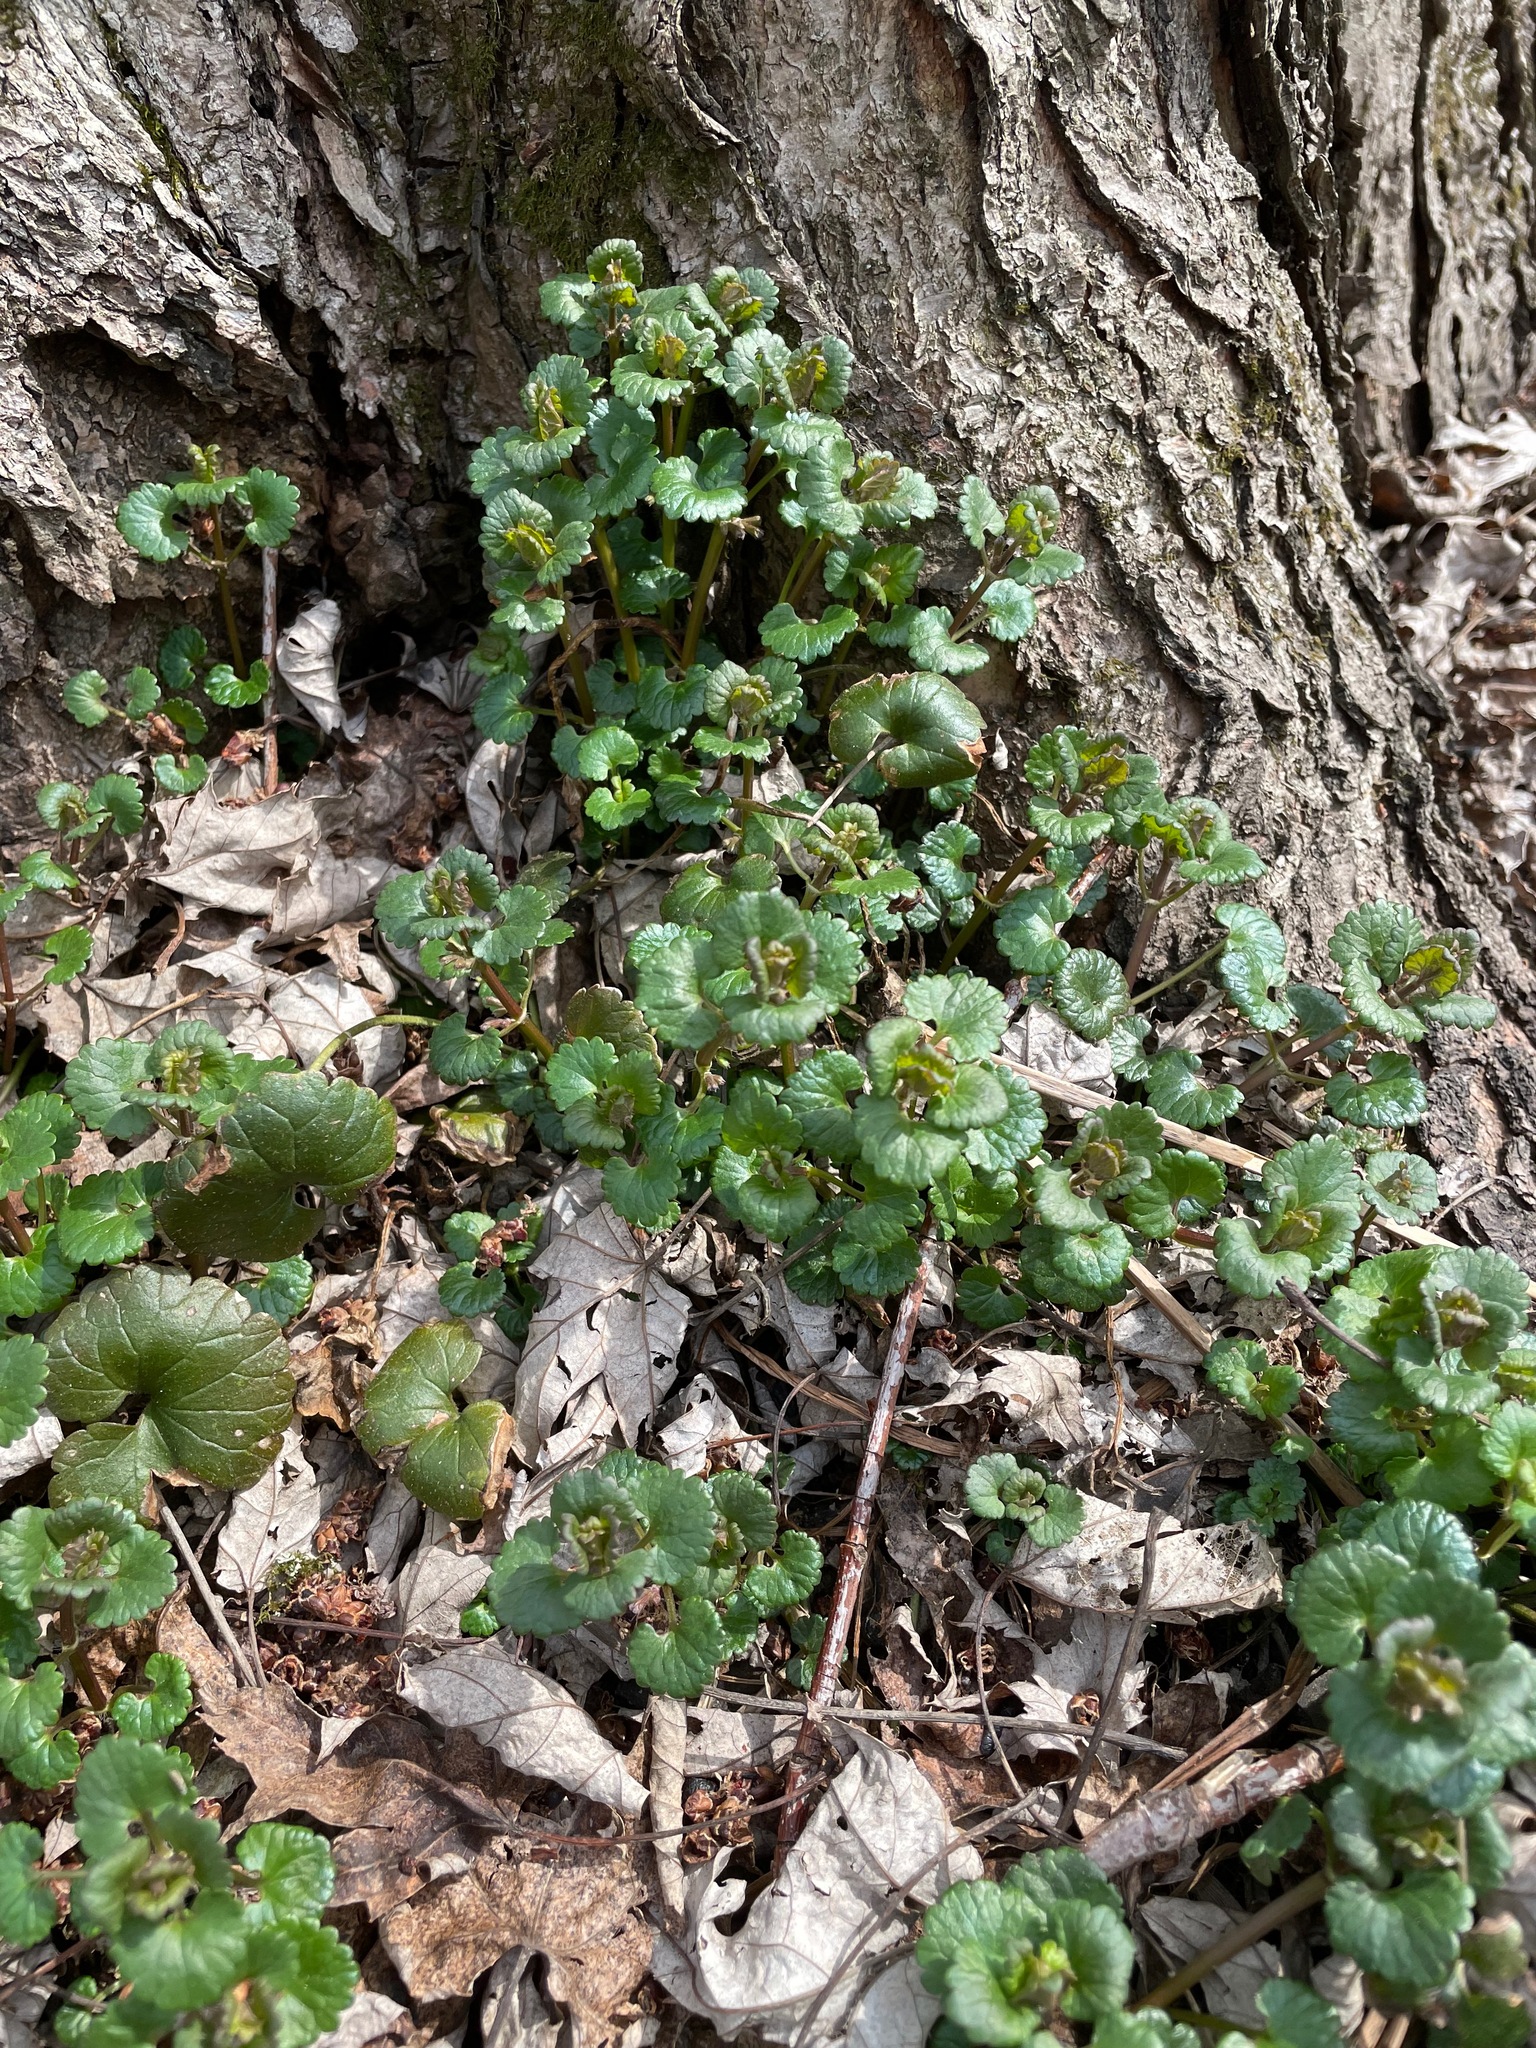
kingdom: Plantae
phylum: Tracheophyta
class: Magnoliopsida
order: Lamiales
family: Lamiaceae
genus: Glechoma
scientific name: Glechoma hederacea
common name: Ground ivy
